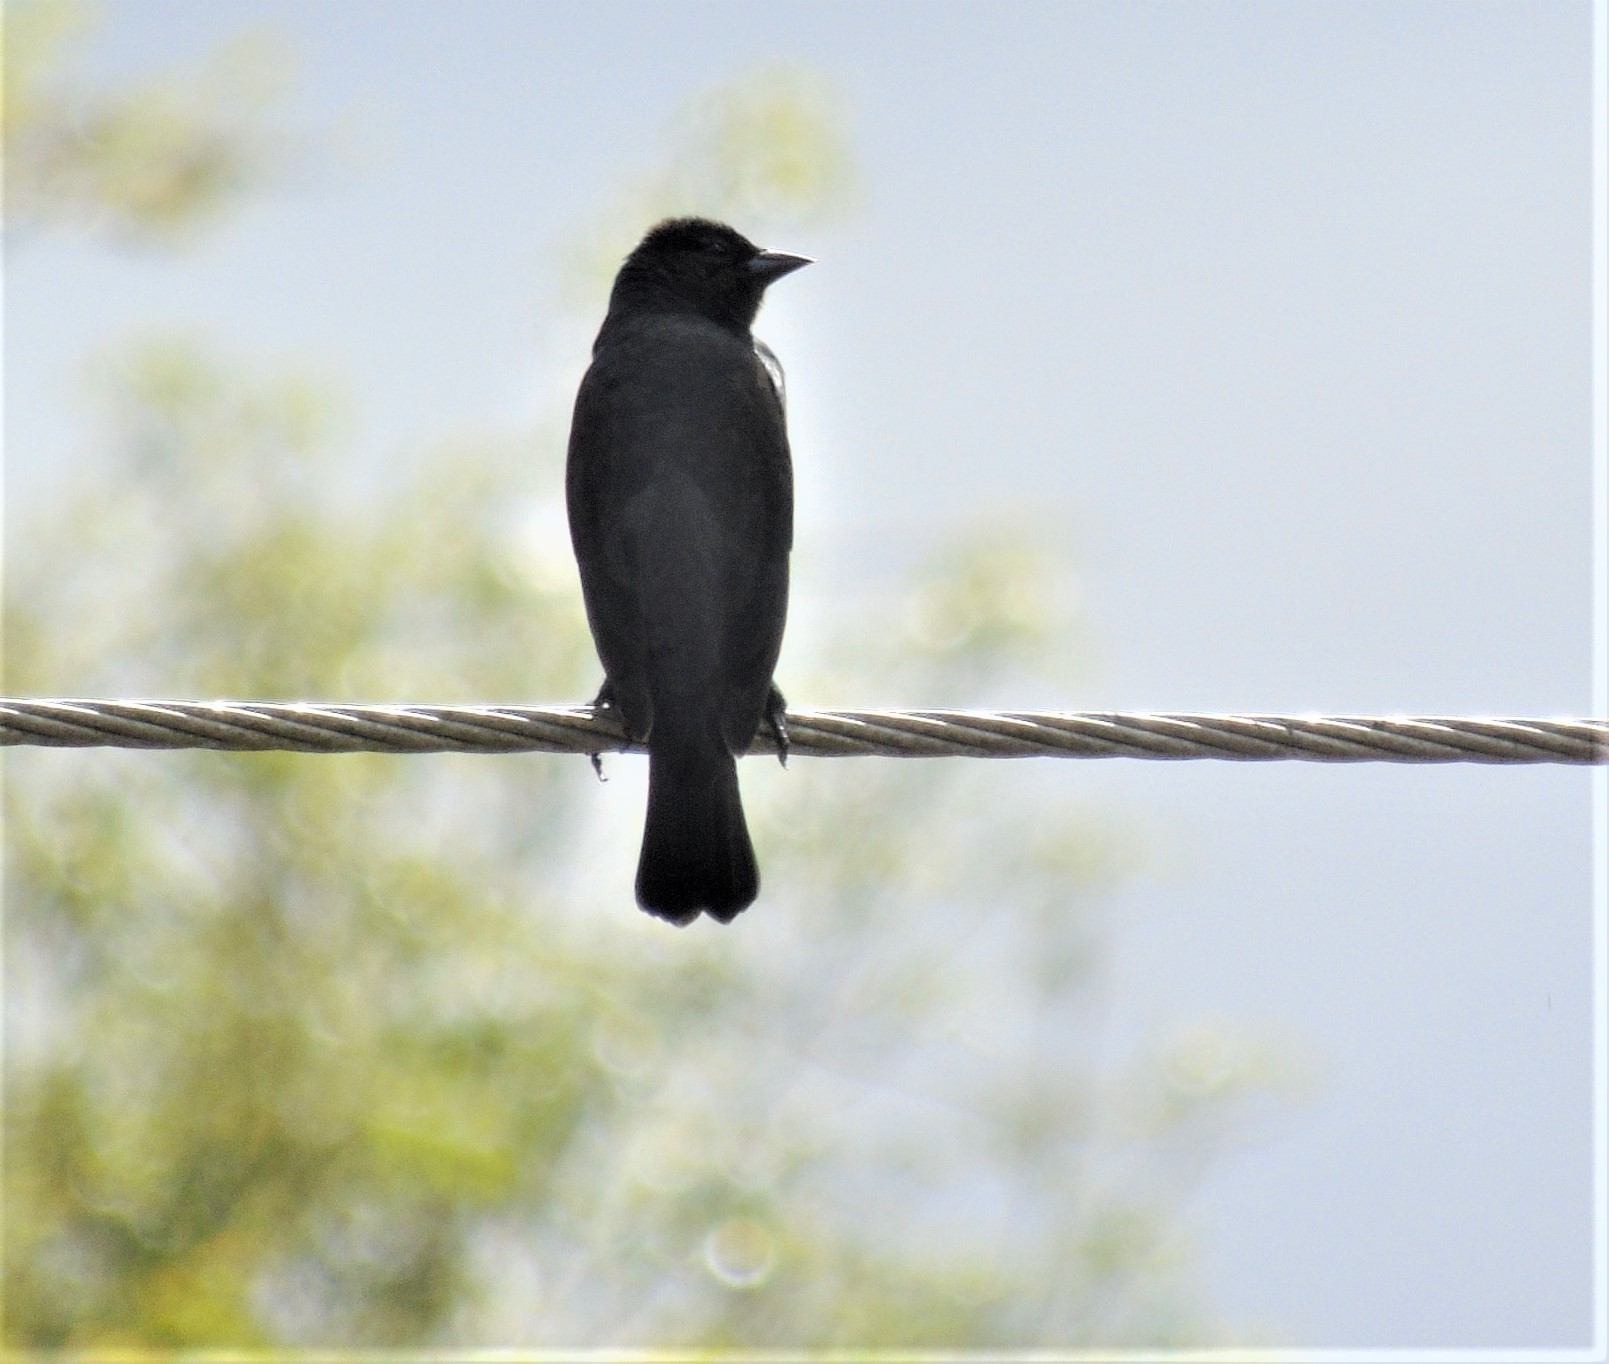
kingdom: Animalia
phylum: Chordata
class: Aves
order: Passeriformes
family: Icteridae
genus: Molothrus
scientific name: Molothrus bonariensis
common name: Shiny cowbird
